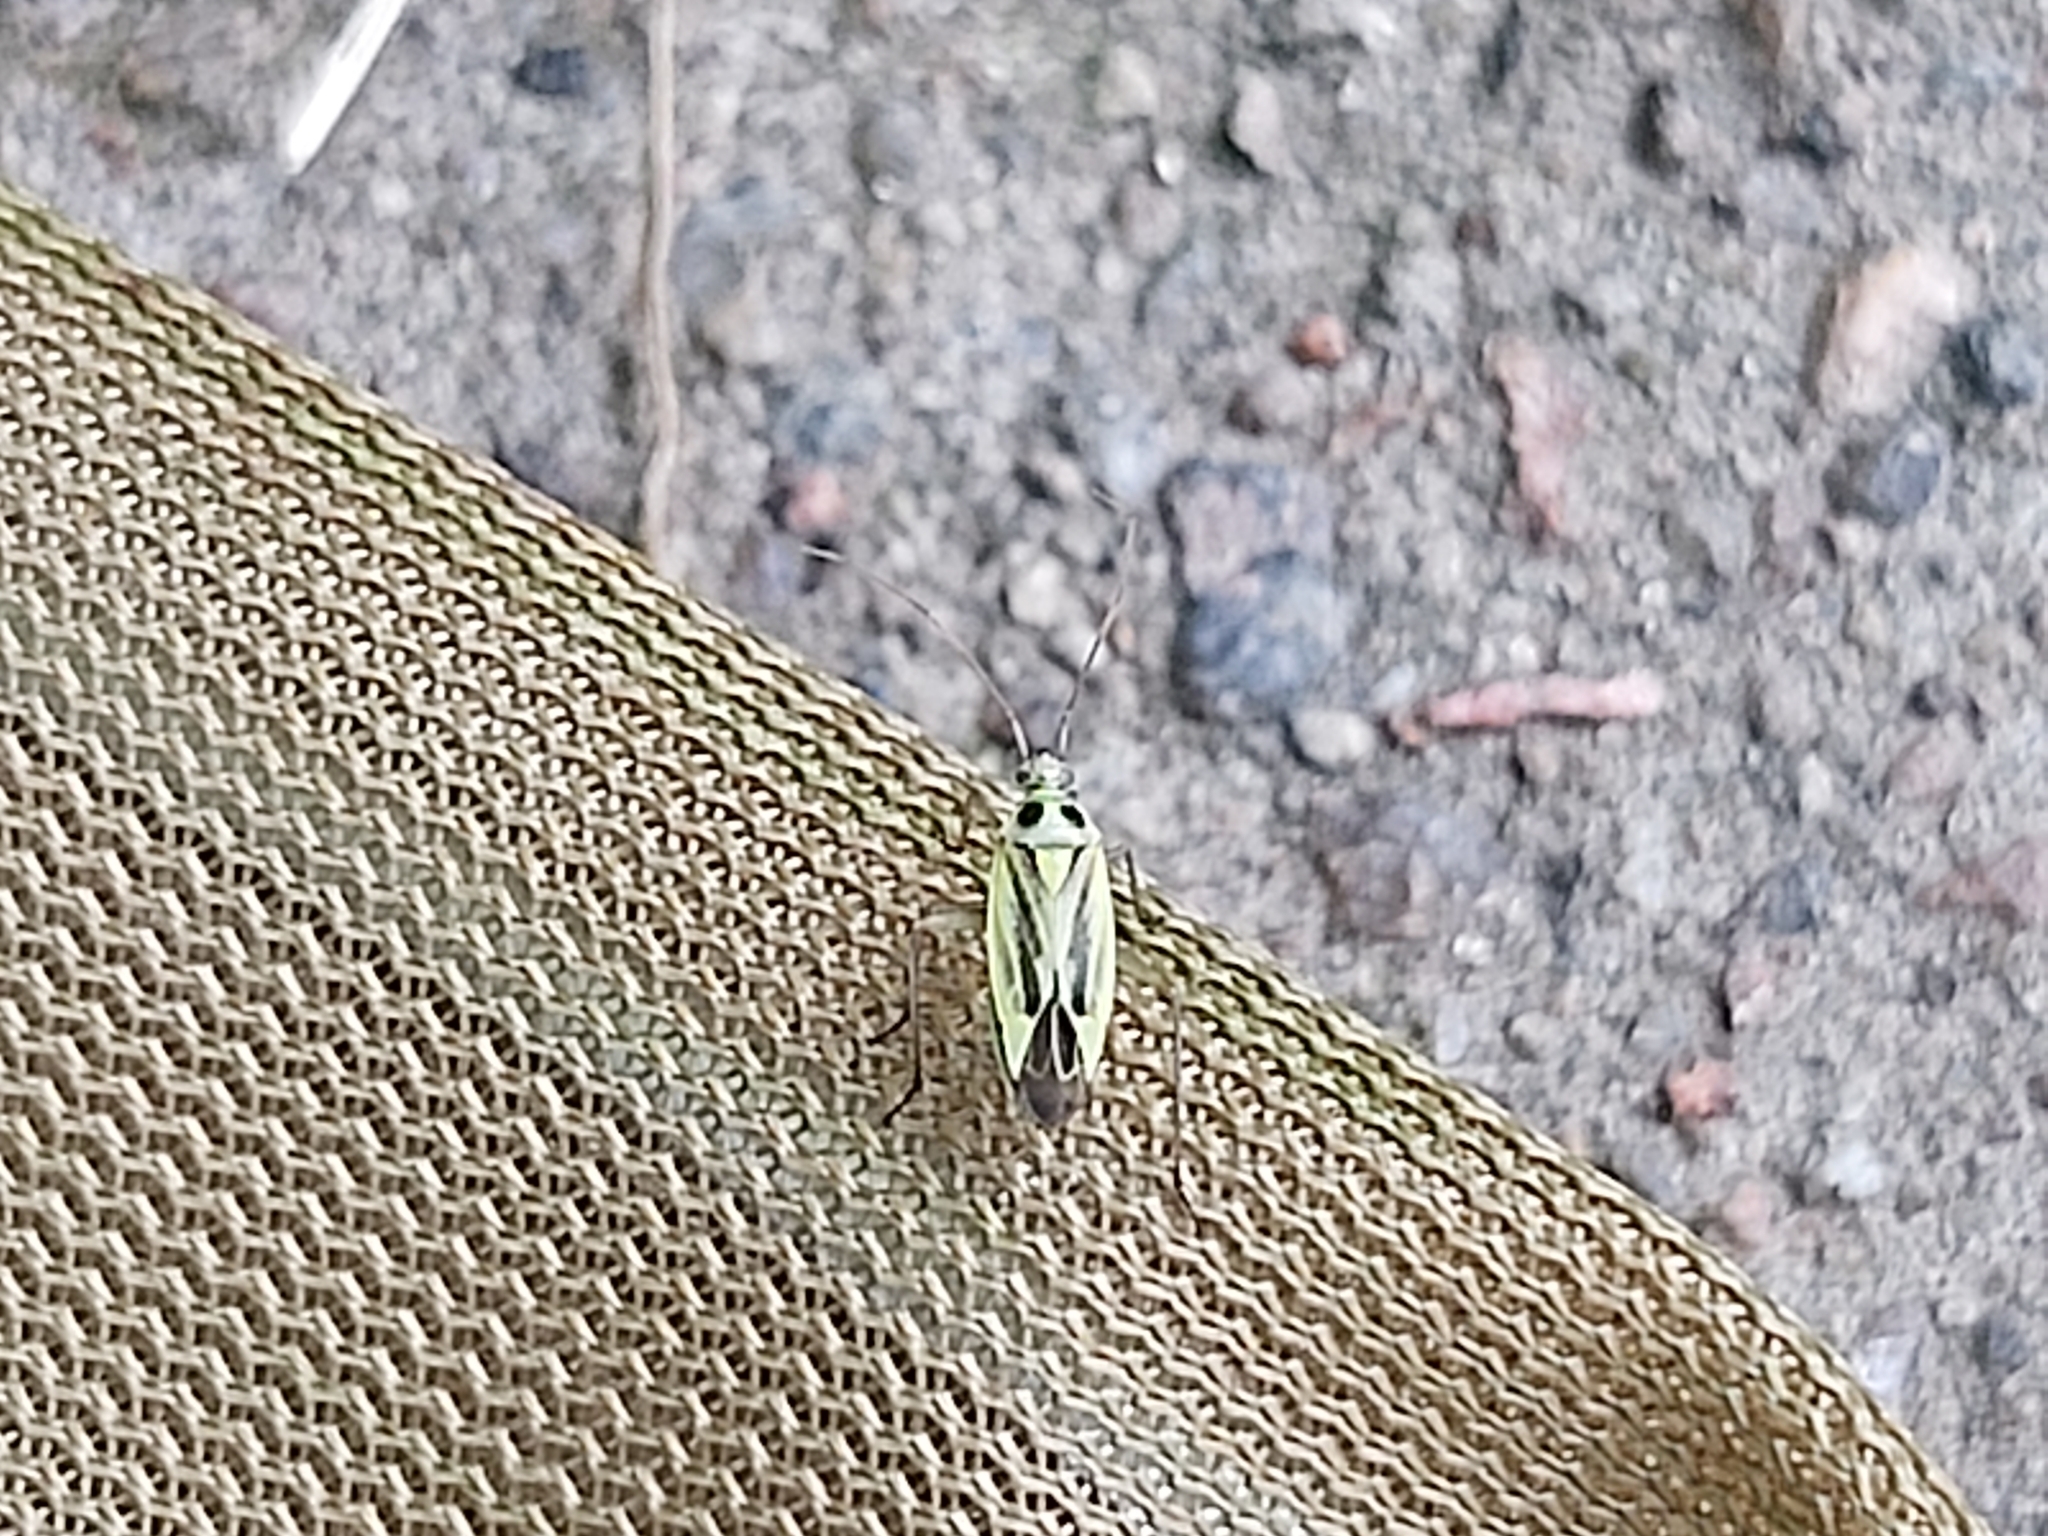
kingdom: Animalia
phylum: Arthropoda
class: Insecta
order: Hemiptera
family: Miridae
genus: Stenotus
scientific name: Stenotus binotatus
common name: Plant bug
